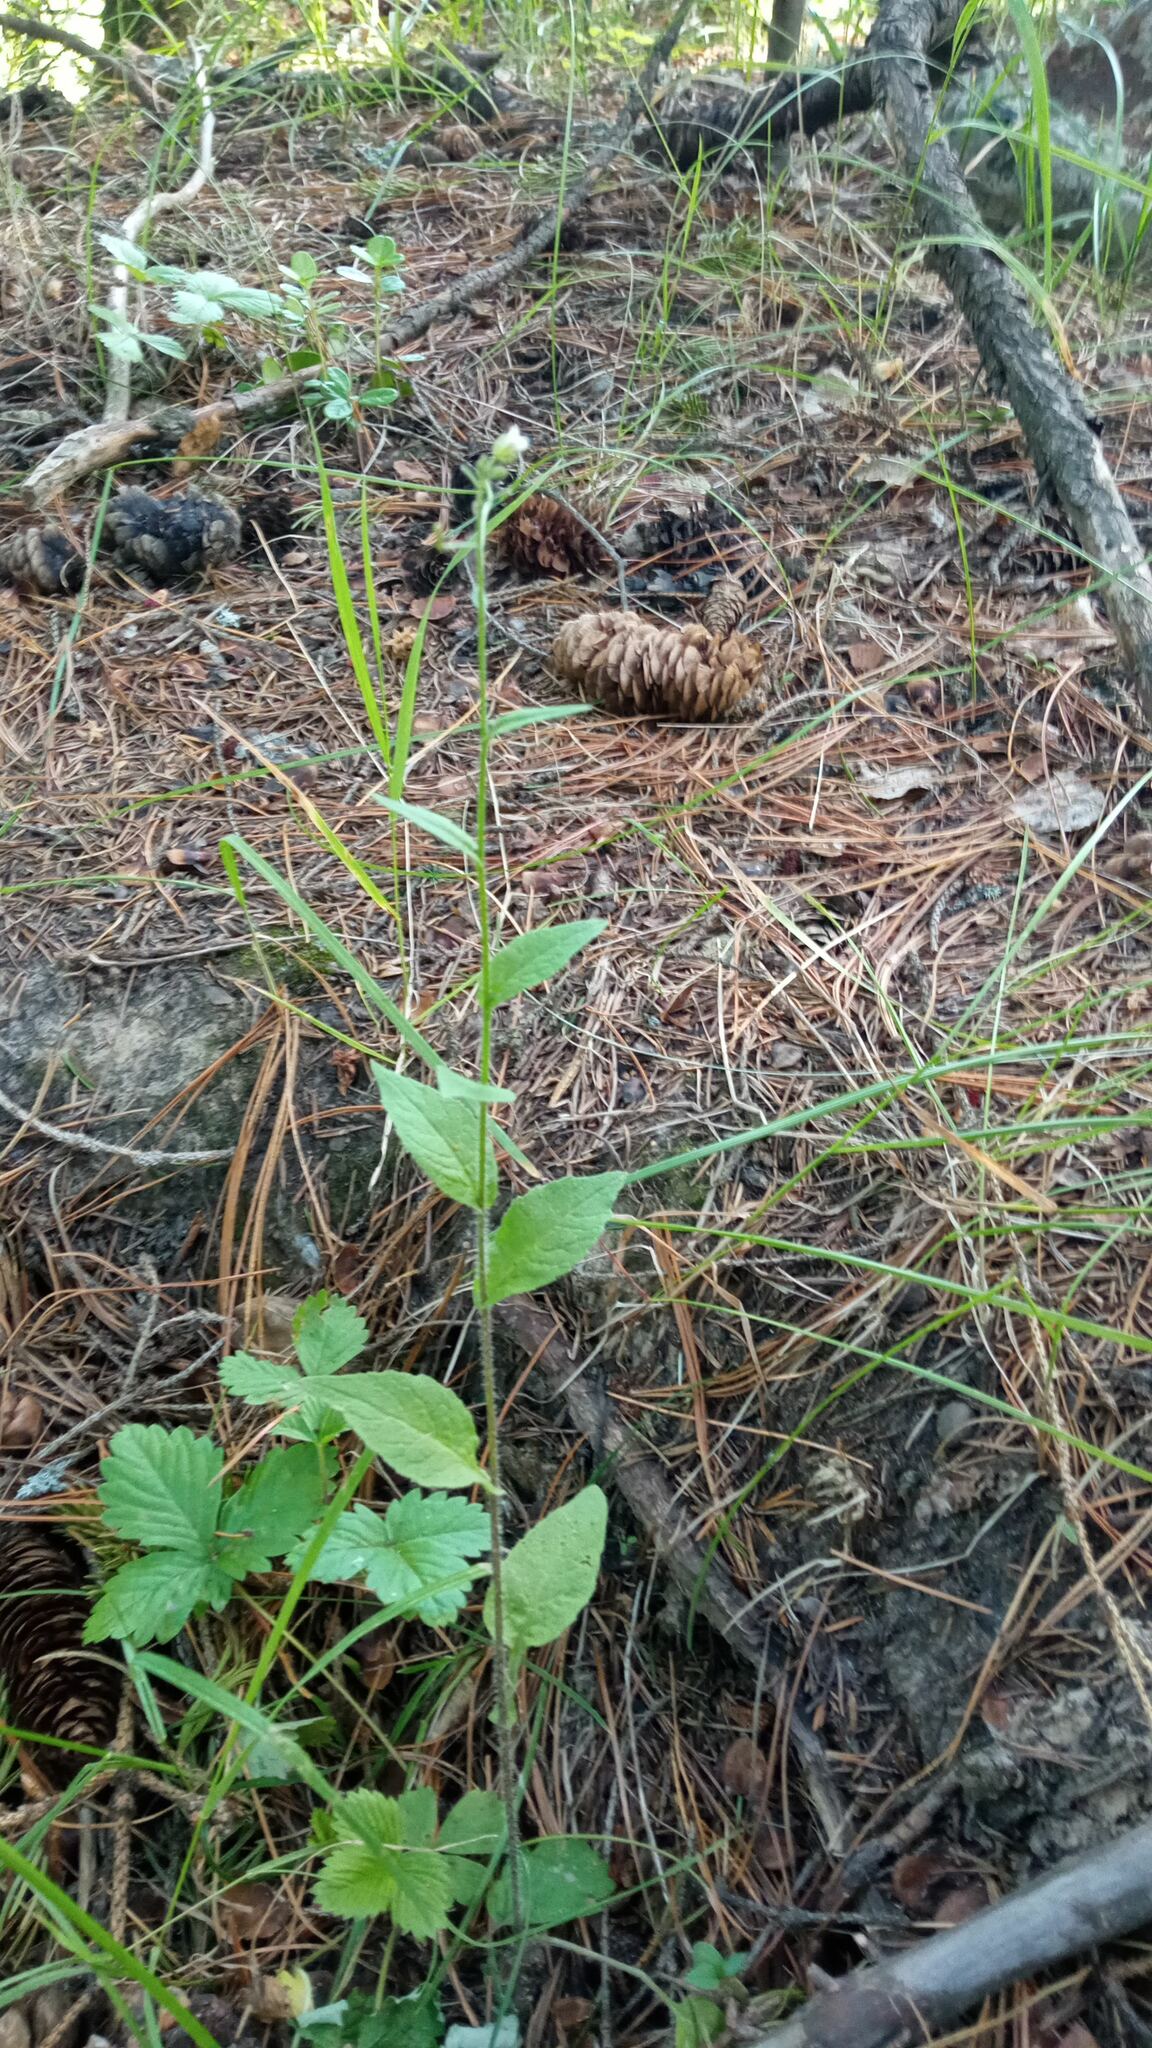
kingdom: Plantae
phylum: Tracheophyta
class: Magnoliopsida
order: Brassicales
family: Brassicaceae
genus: Catolobus
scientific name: Catolobus pendulus
